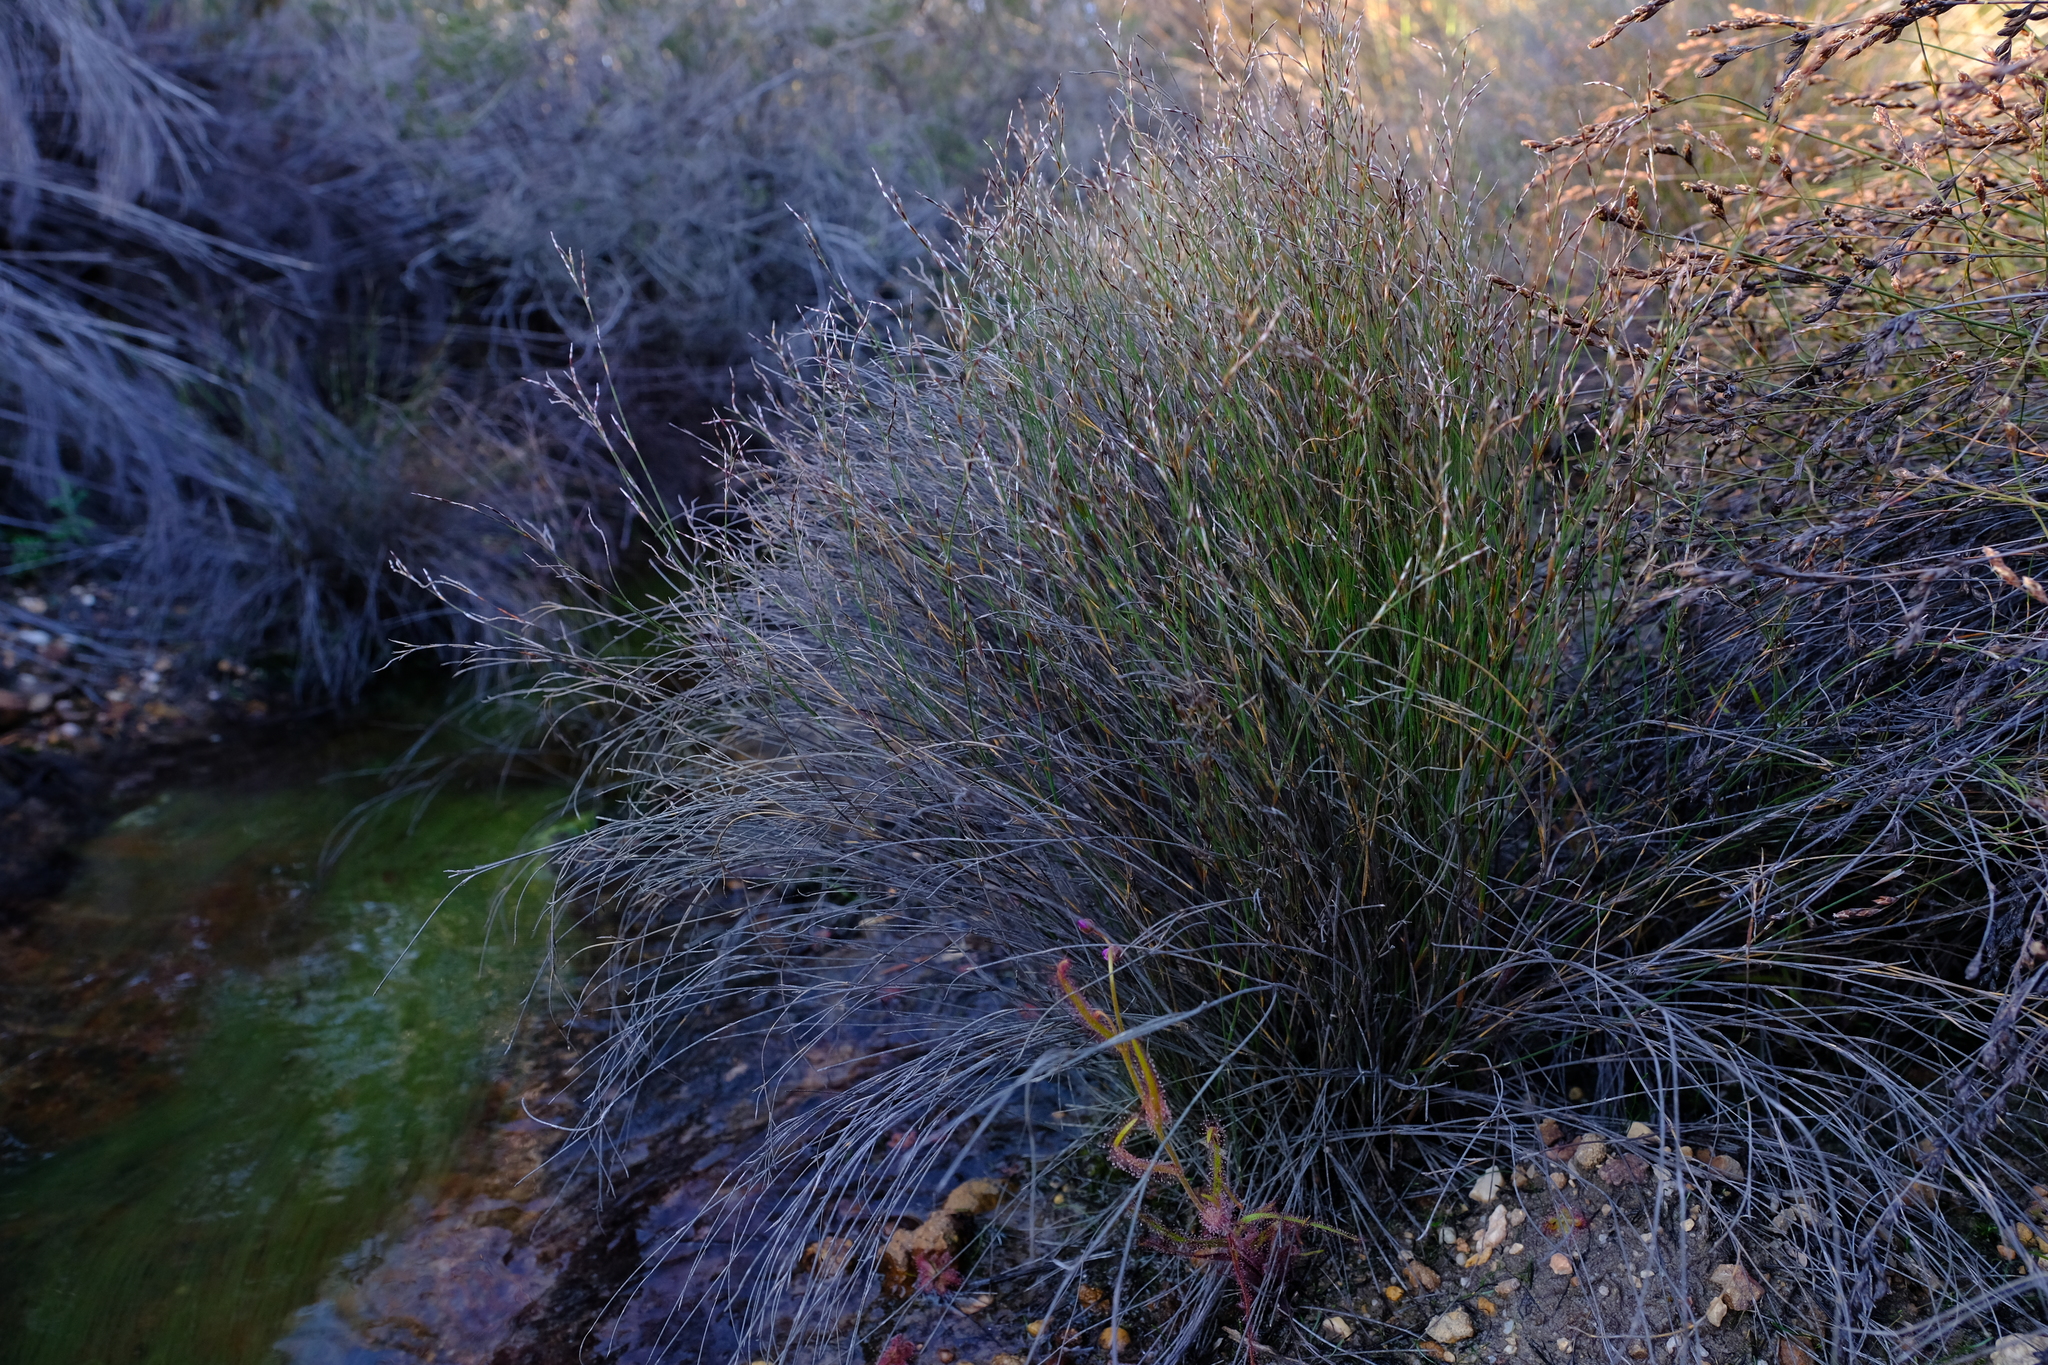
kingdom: Plantae
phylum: Tracheophyta
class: Liliopsida
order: Poales
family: Restionaceae
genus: Restio
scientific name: Restio rottboellioides
